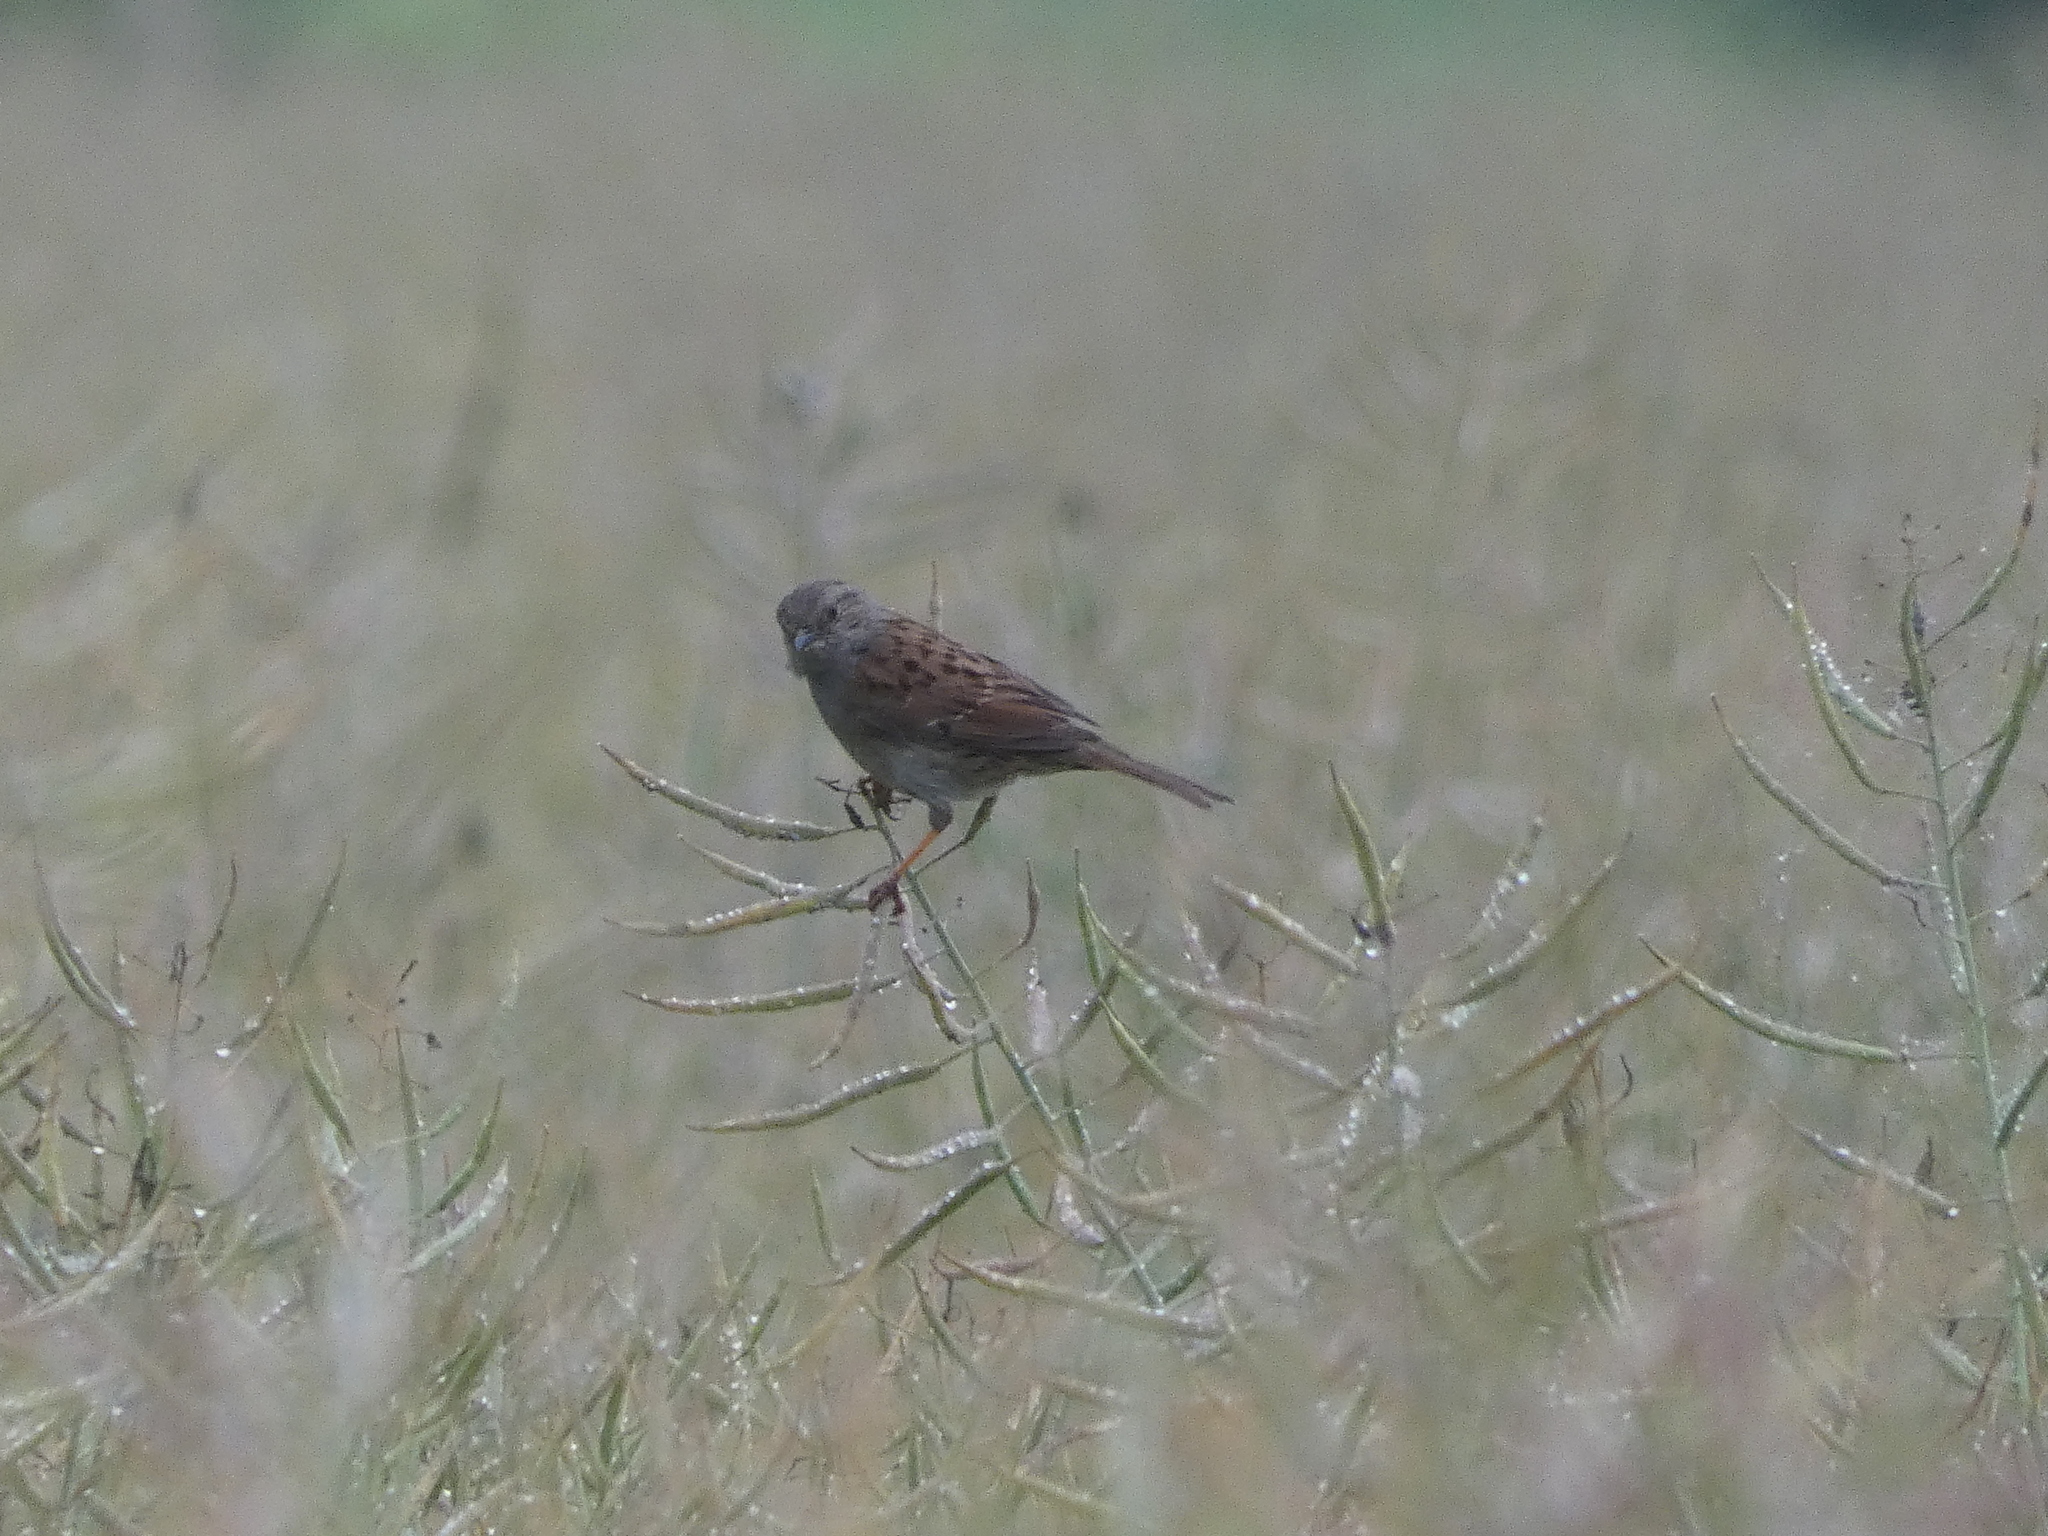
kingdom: Animalia
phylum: Chordata
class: Aves
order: Passeriformes
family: Prunellidae
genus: Prunella
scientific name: Prunella modularis
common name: Dunnock
